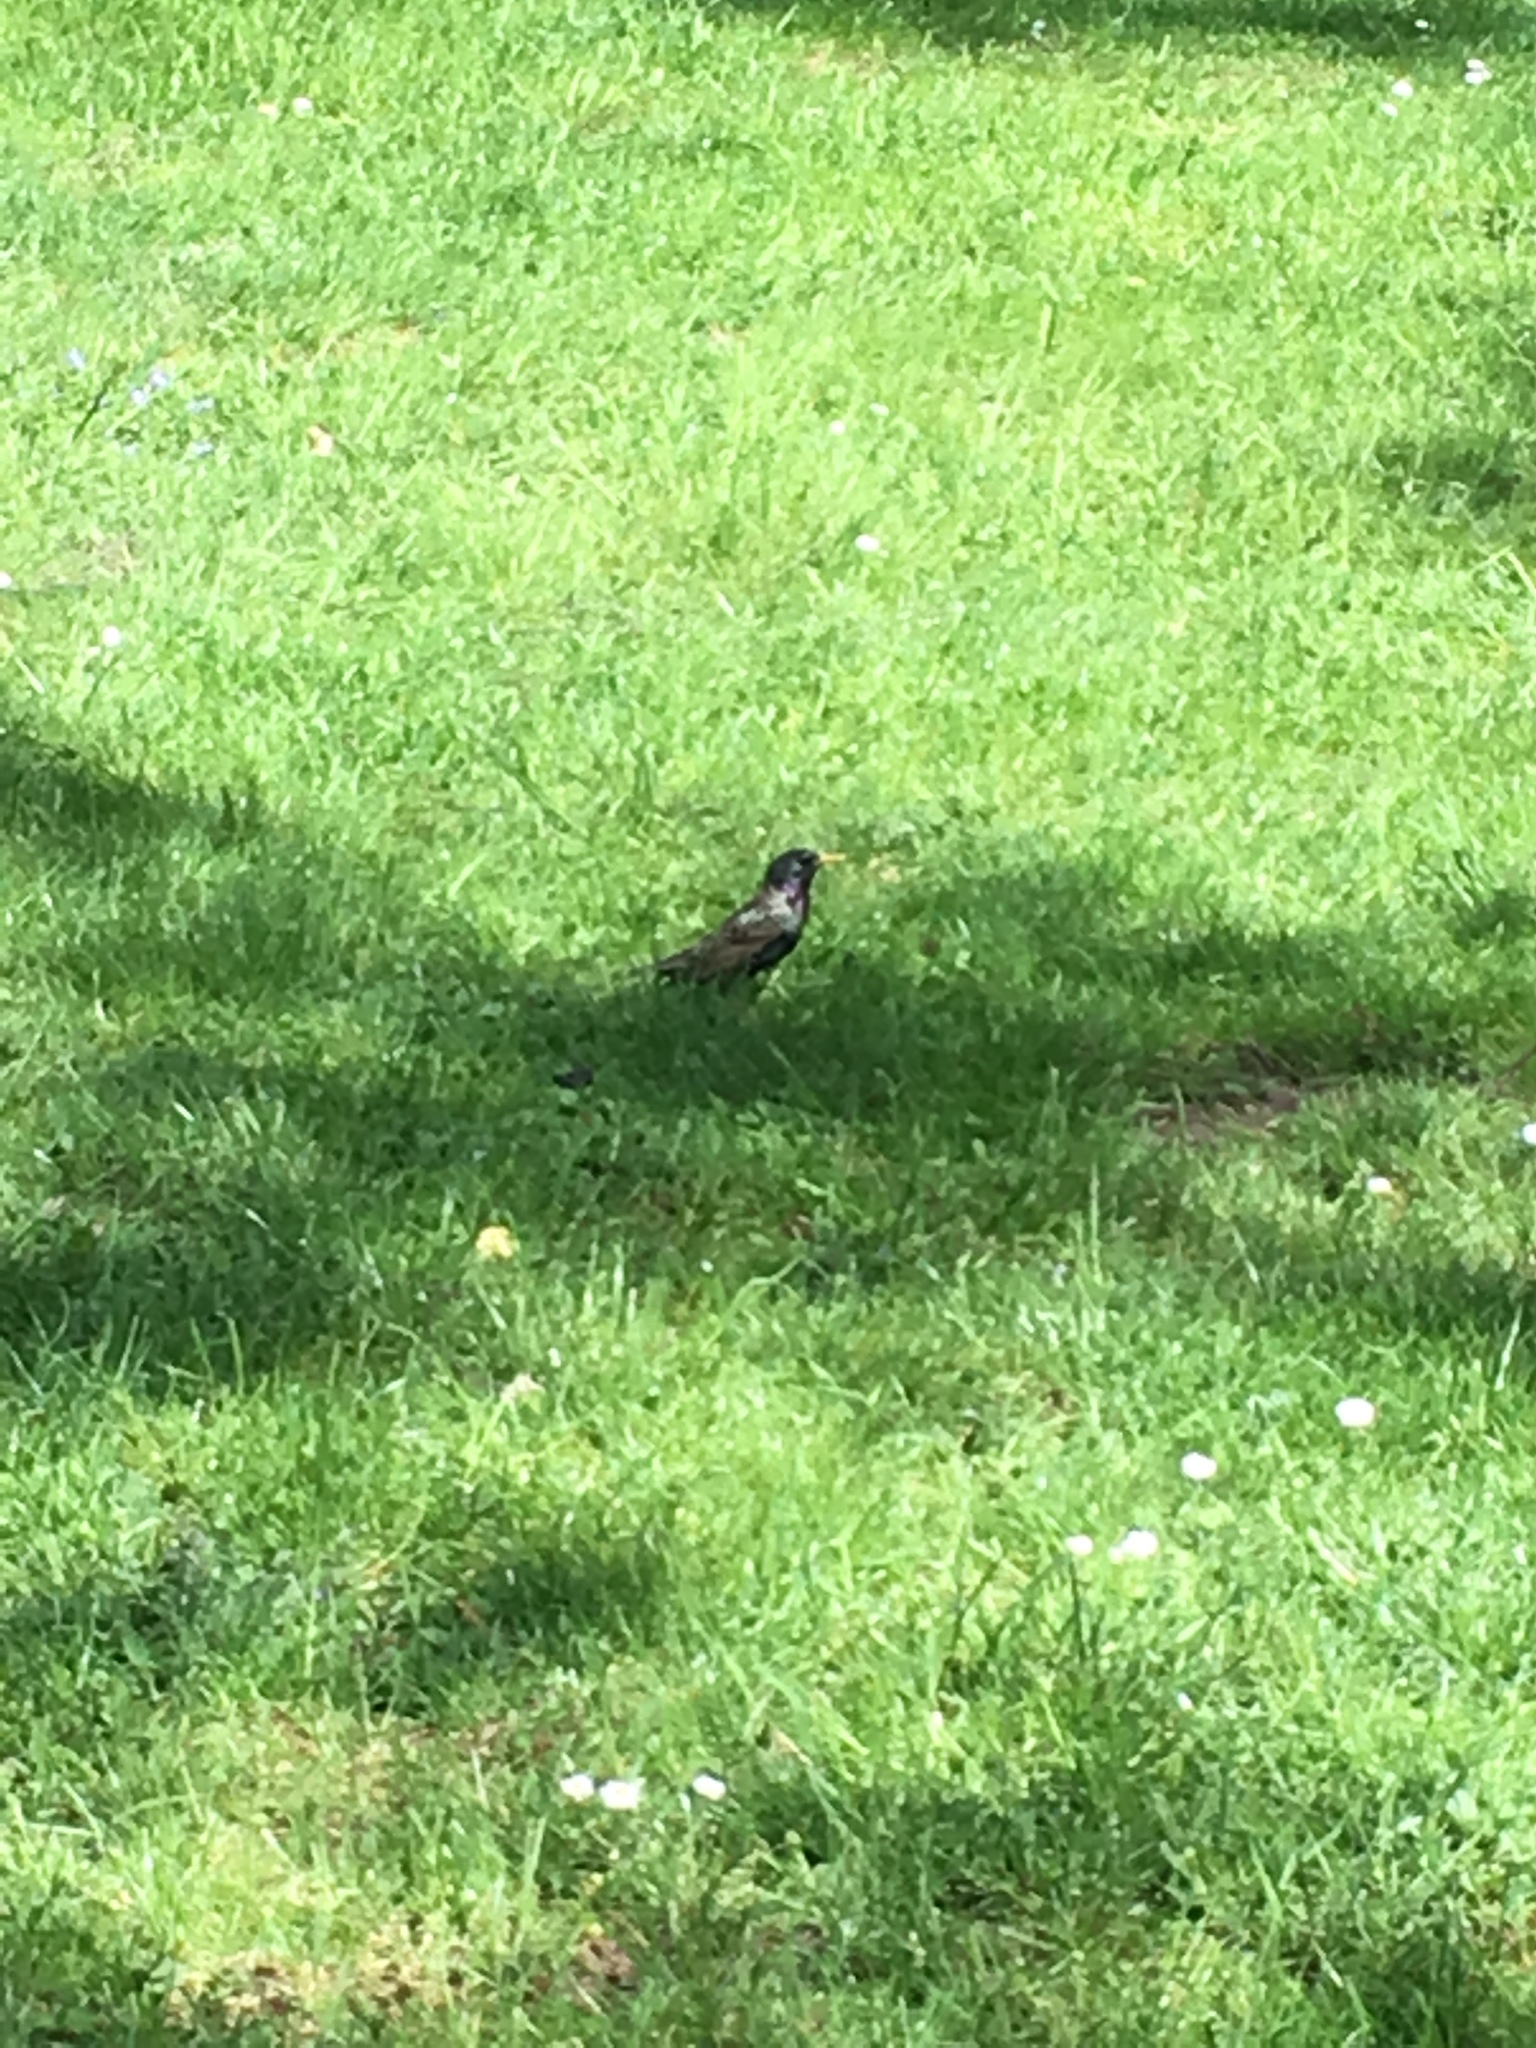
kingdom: Animalia
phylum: Chordata
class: Aves
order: Passeriformes
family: Sturnidae
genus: Sturnus
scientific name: Sturnus vulgaris
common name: Common starling
